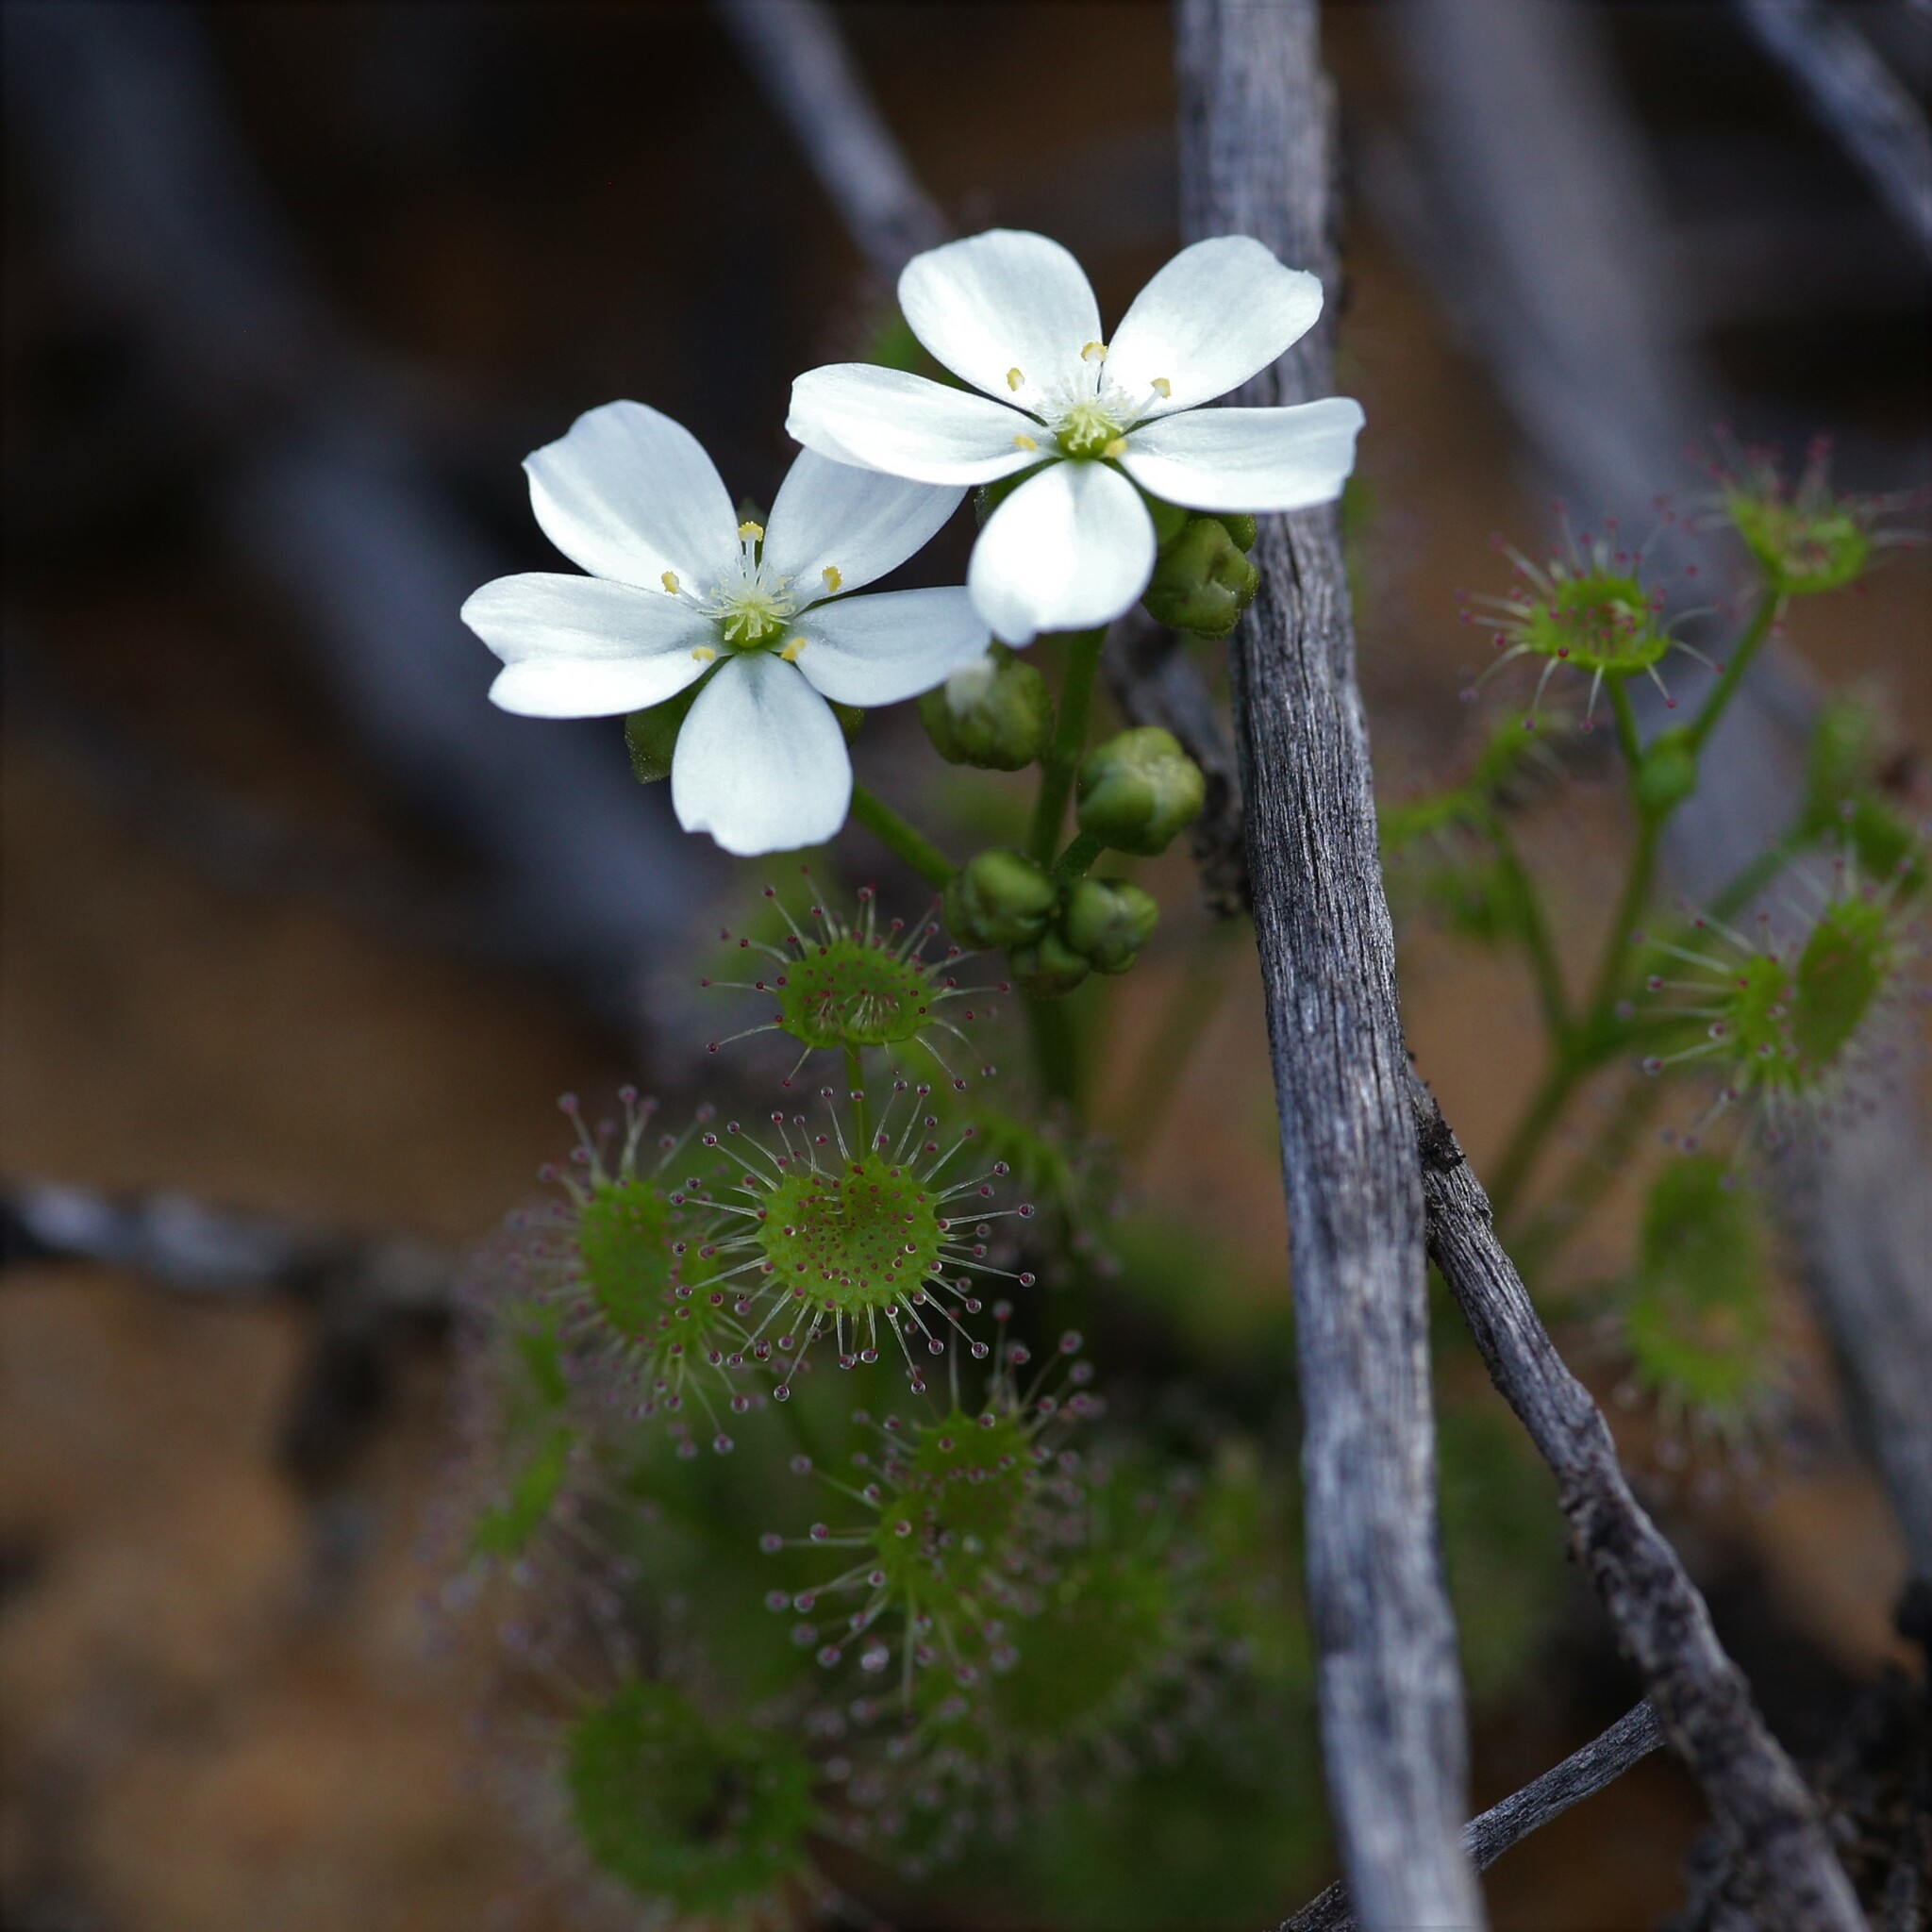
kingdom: Plantae
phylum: Tracheophyta
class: Magnoliopsida
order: Caryophyllales
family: Droseraceae
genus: Drosera
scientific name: Drosera stolonifera
